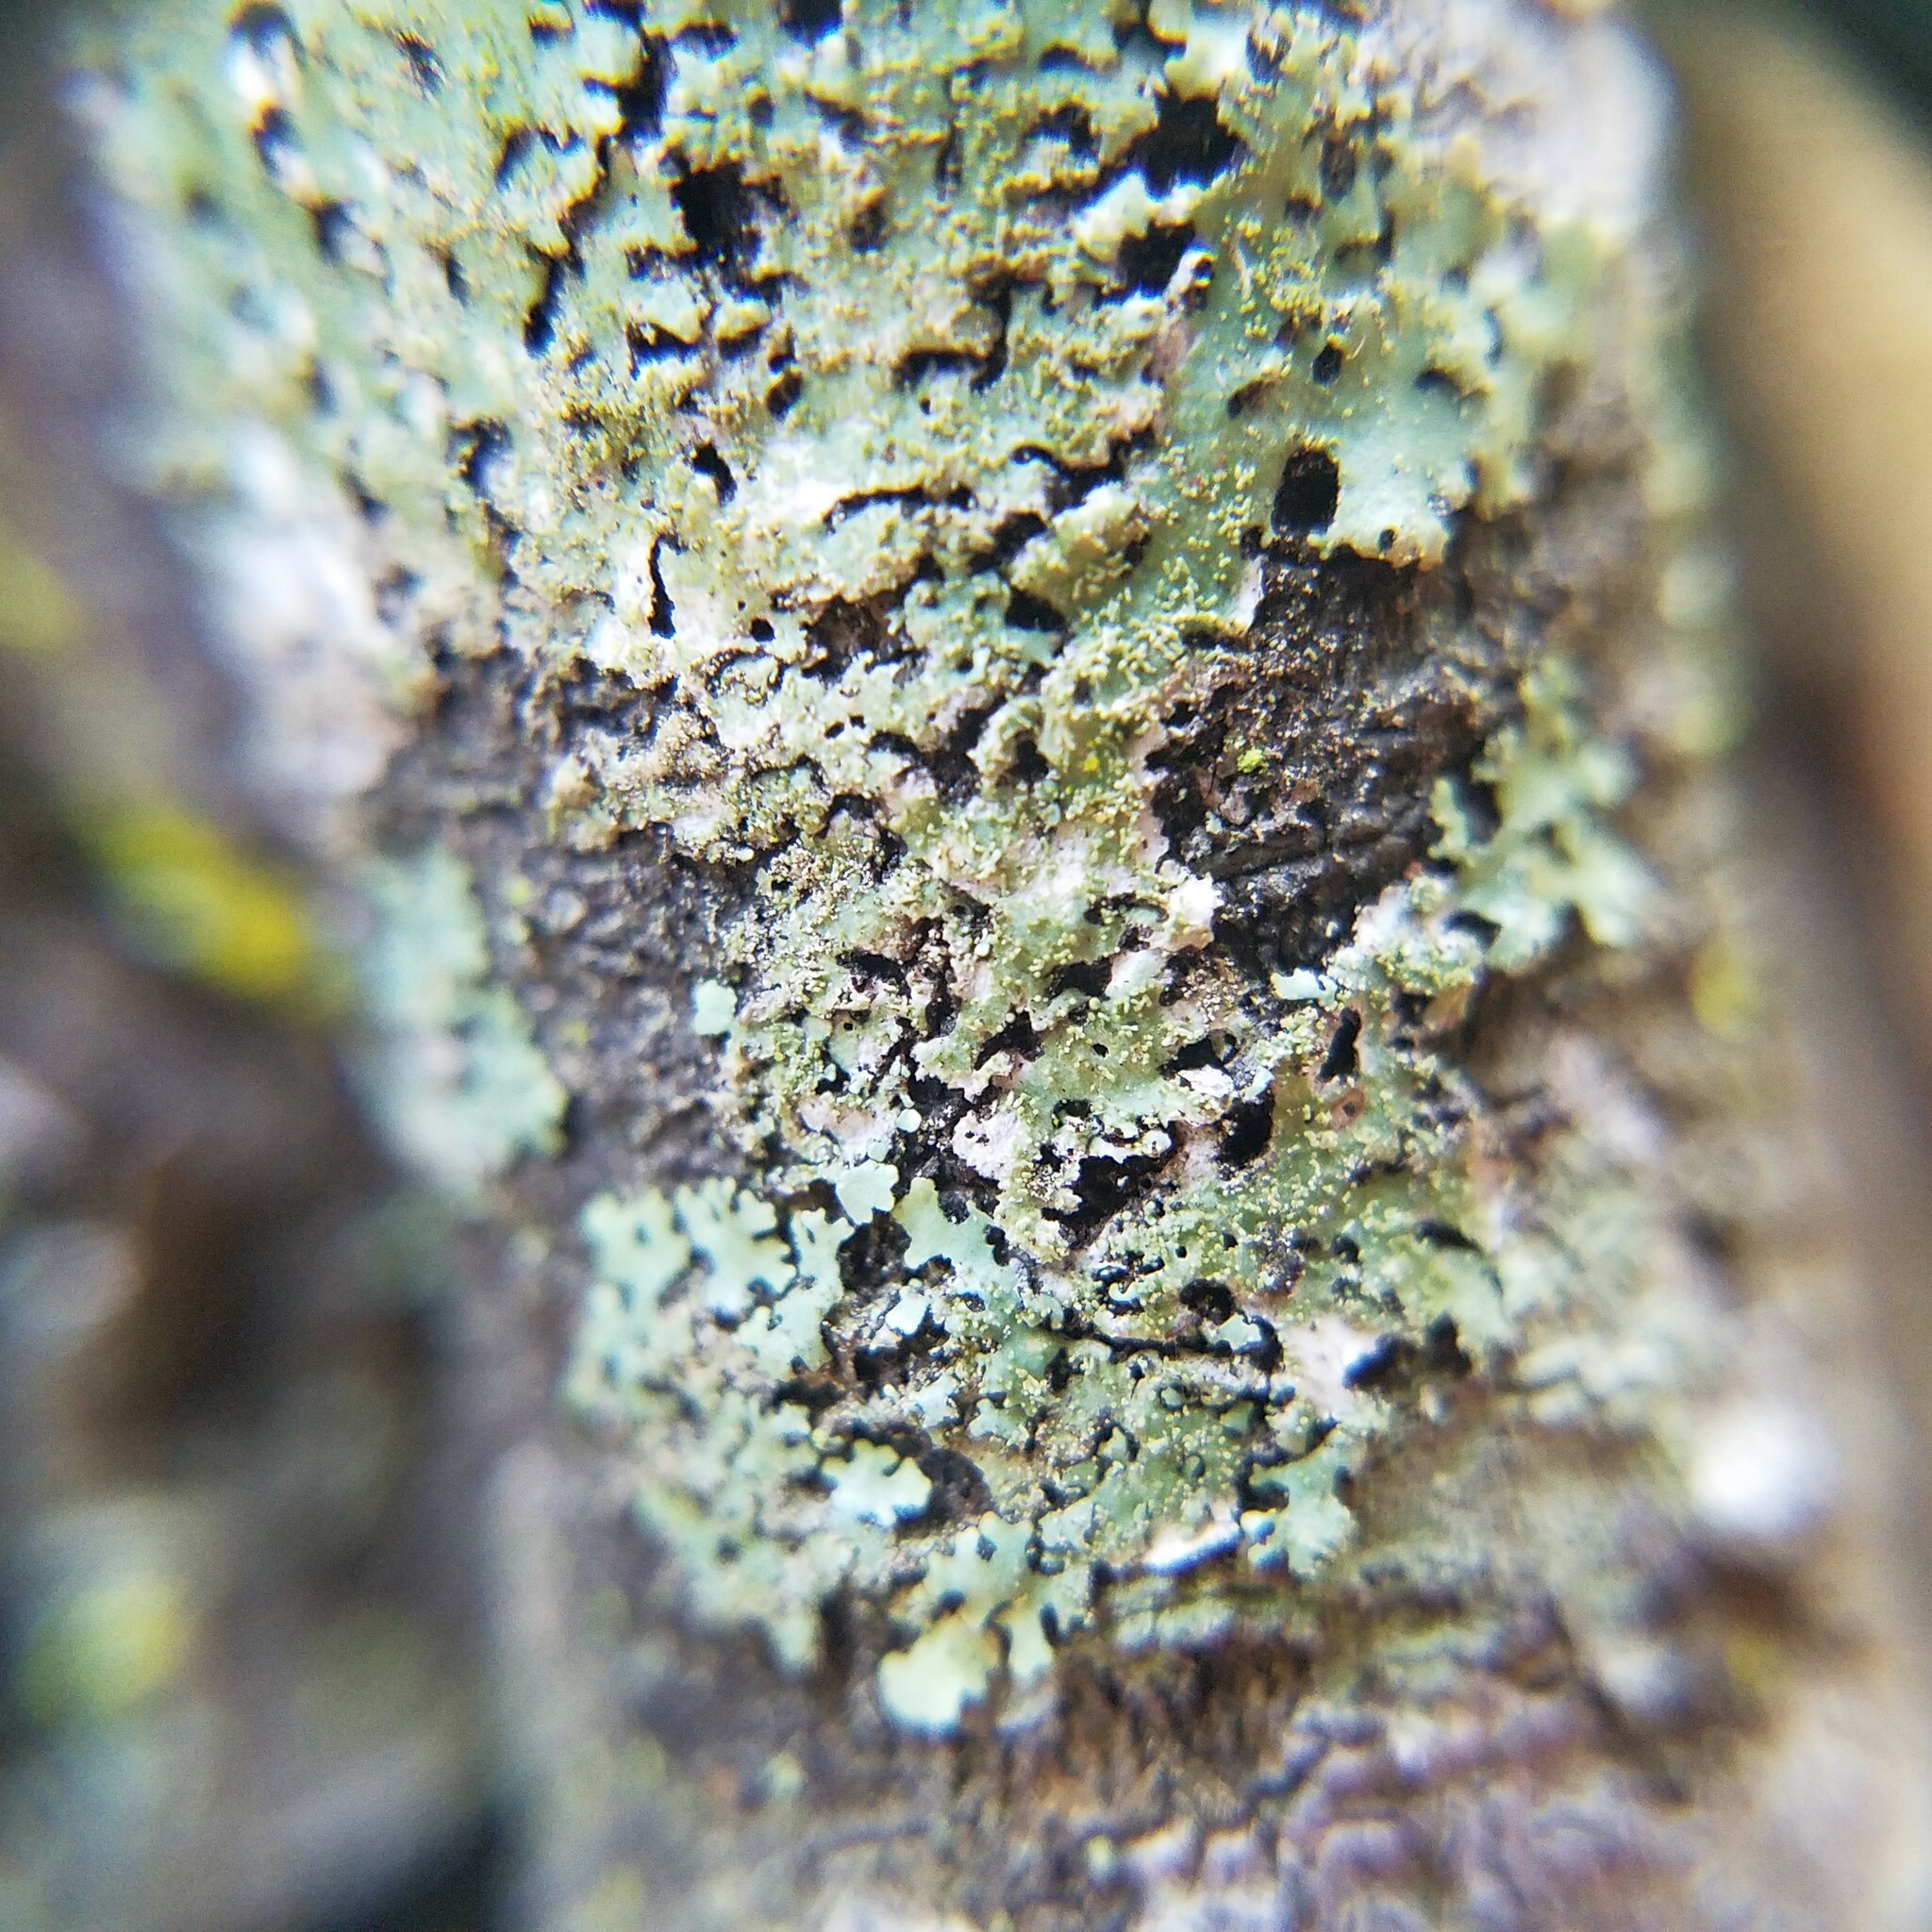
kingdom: Fungi
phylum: Ascomycota
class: Lecanoromycetes
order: Lecanorales
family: Parmeliaceae
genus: Bulbothrix
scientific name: Bulbothrix goebelii
